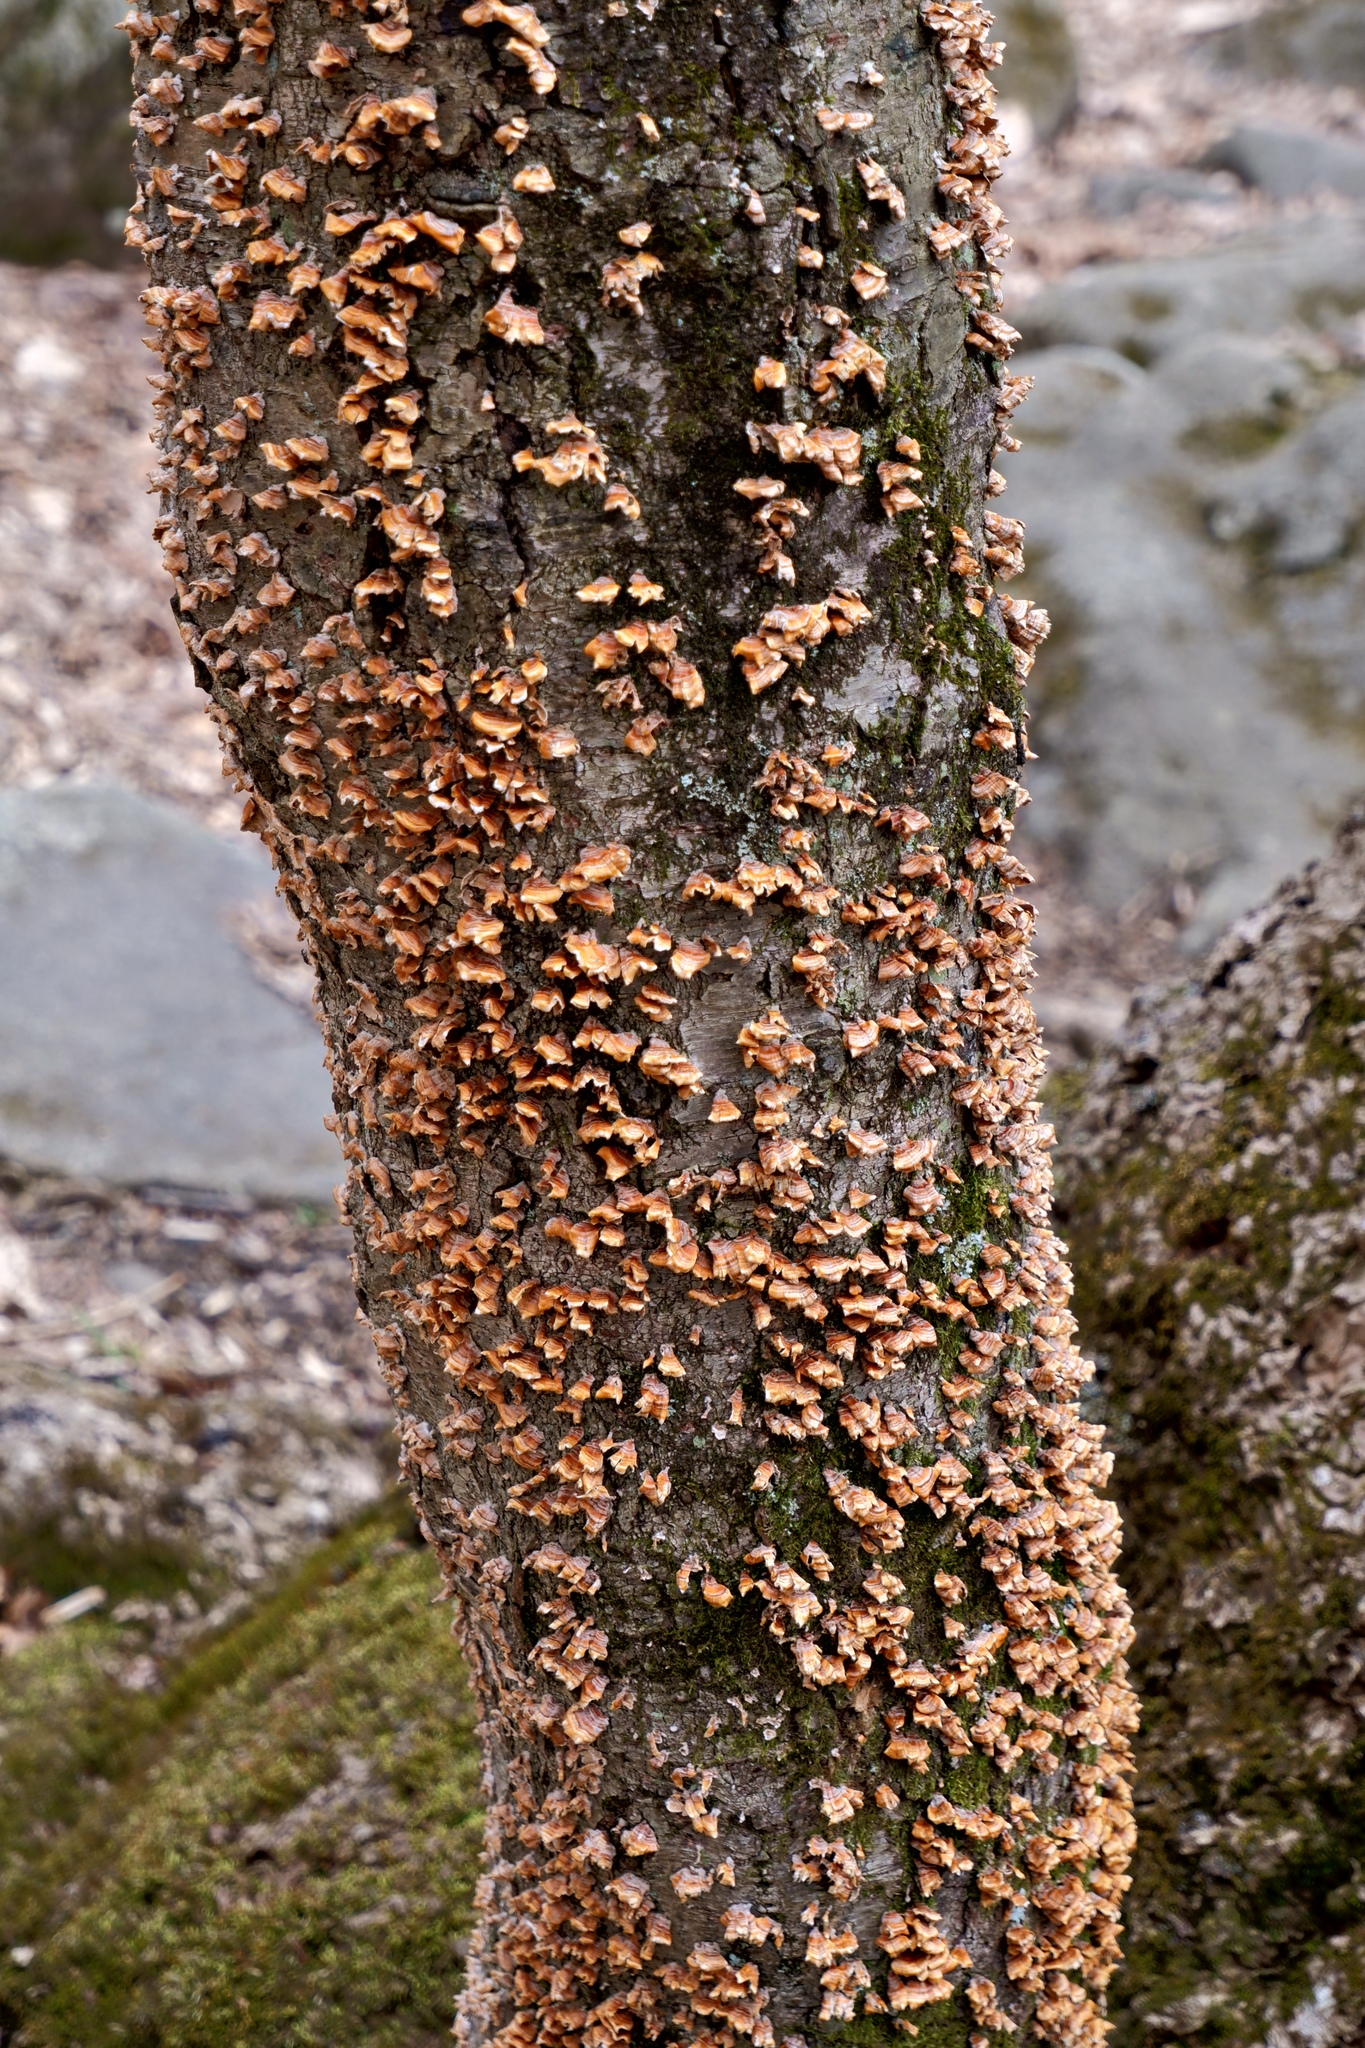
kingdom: Fungi
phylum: Basidiomycota
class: Agaricomycetes
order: Russulales
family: Stereaceae
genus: Stereum
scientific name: Stereum complicatum
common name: Crowded parchment
